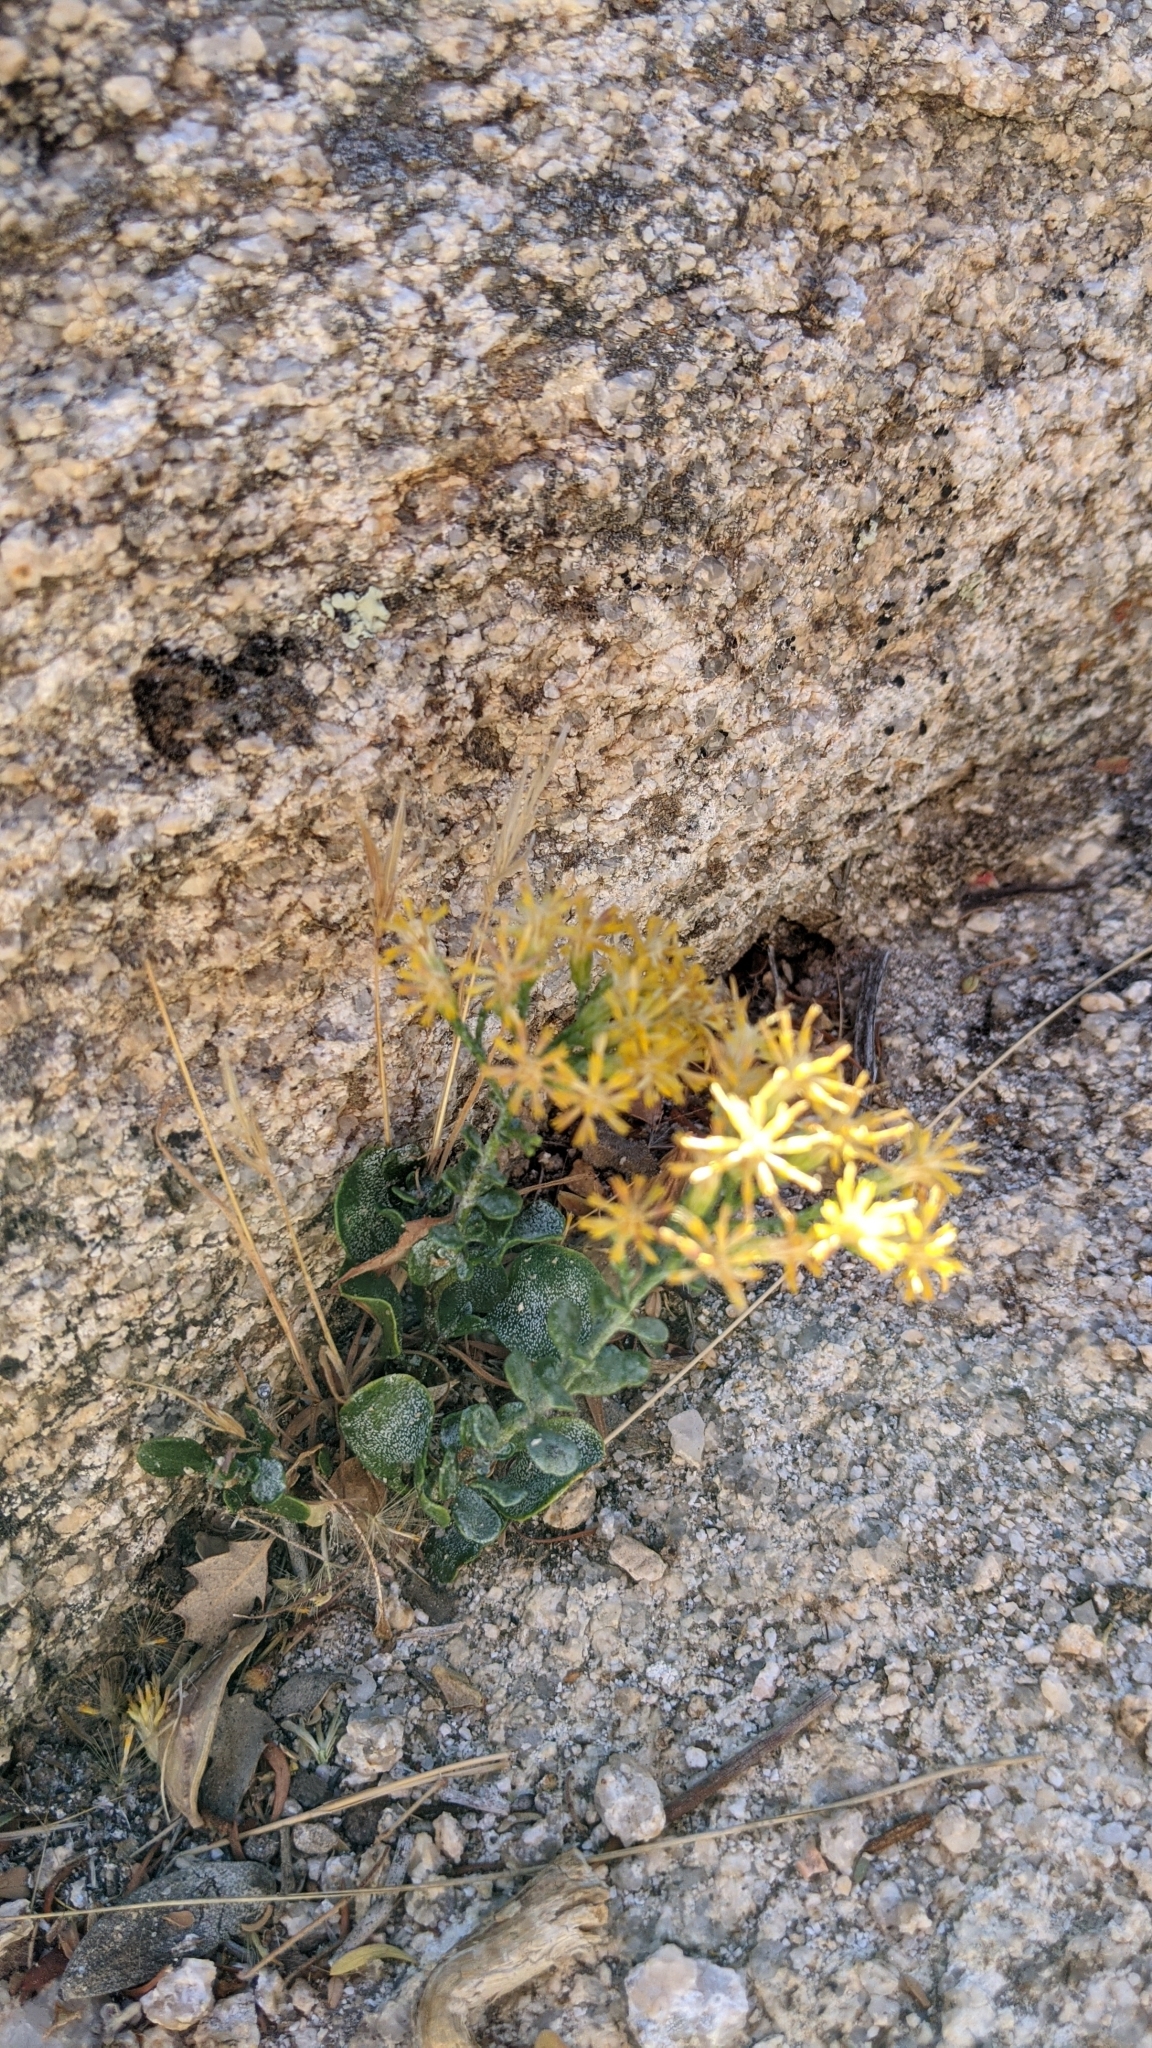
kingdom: Plantae
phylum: Tracheophyta
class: Magnoliopsida
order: Asterales
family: Asteraceae
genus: Ericameria
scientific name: Ericameria cuneata
